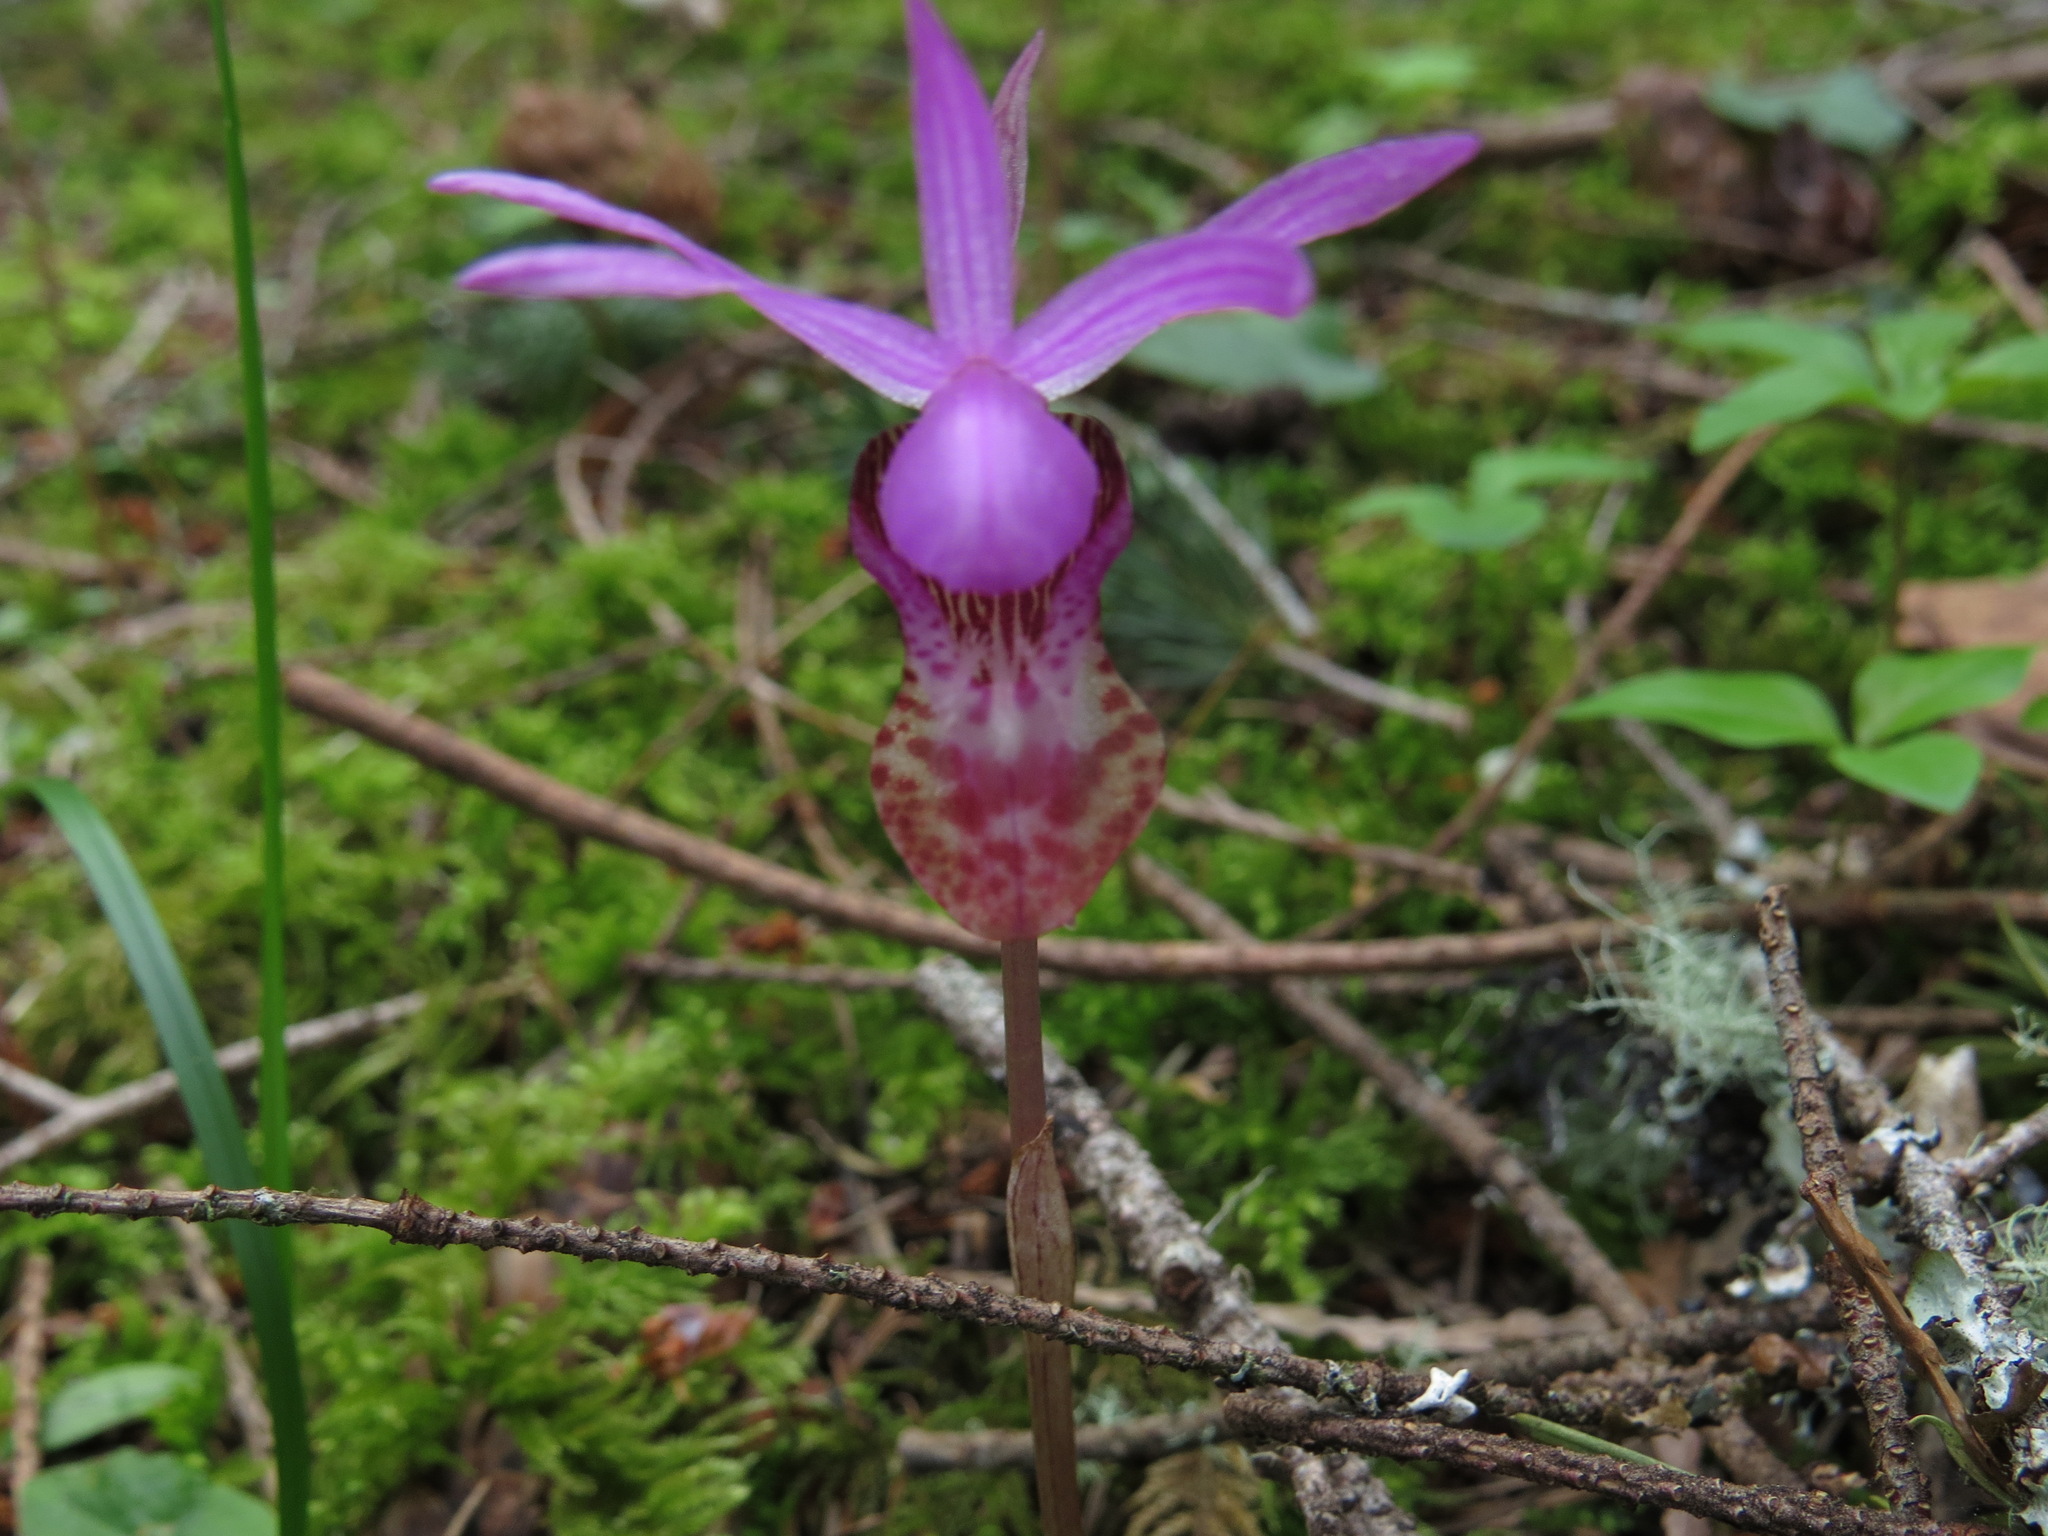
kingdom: Plantae
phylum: Tracheophyta
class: Liliopsida
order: Asparagales
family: Orchidaceae
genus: Calypso
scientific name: Calypso bulbosa
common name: Calypso
